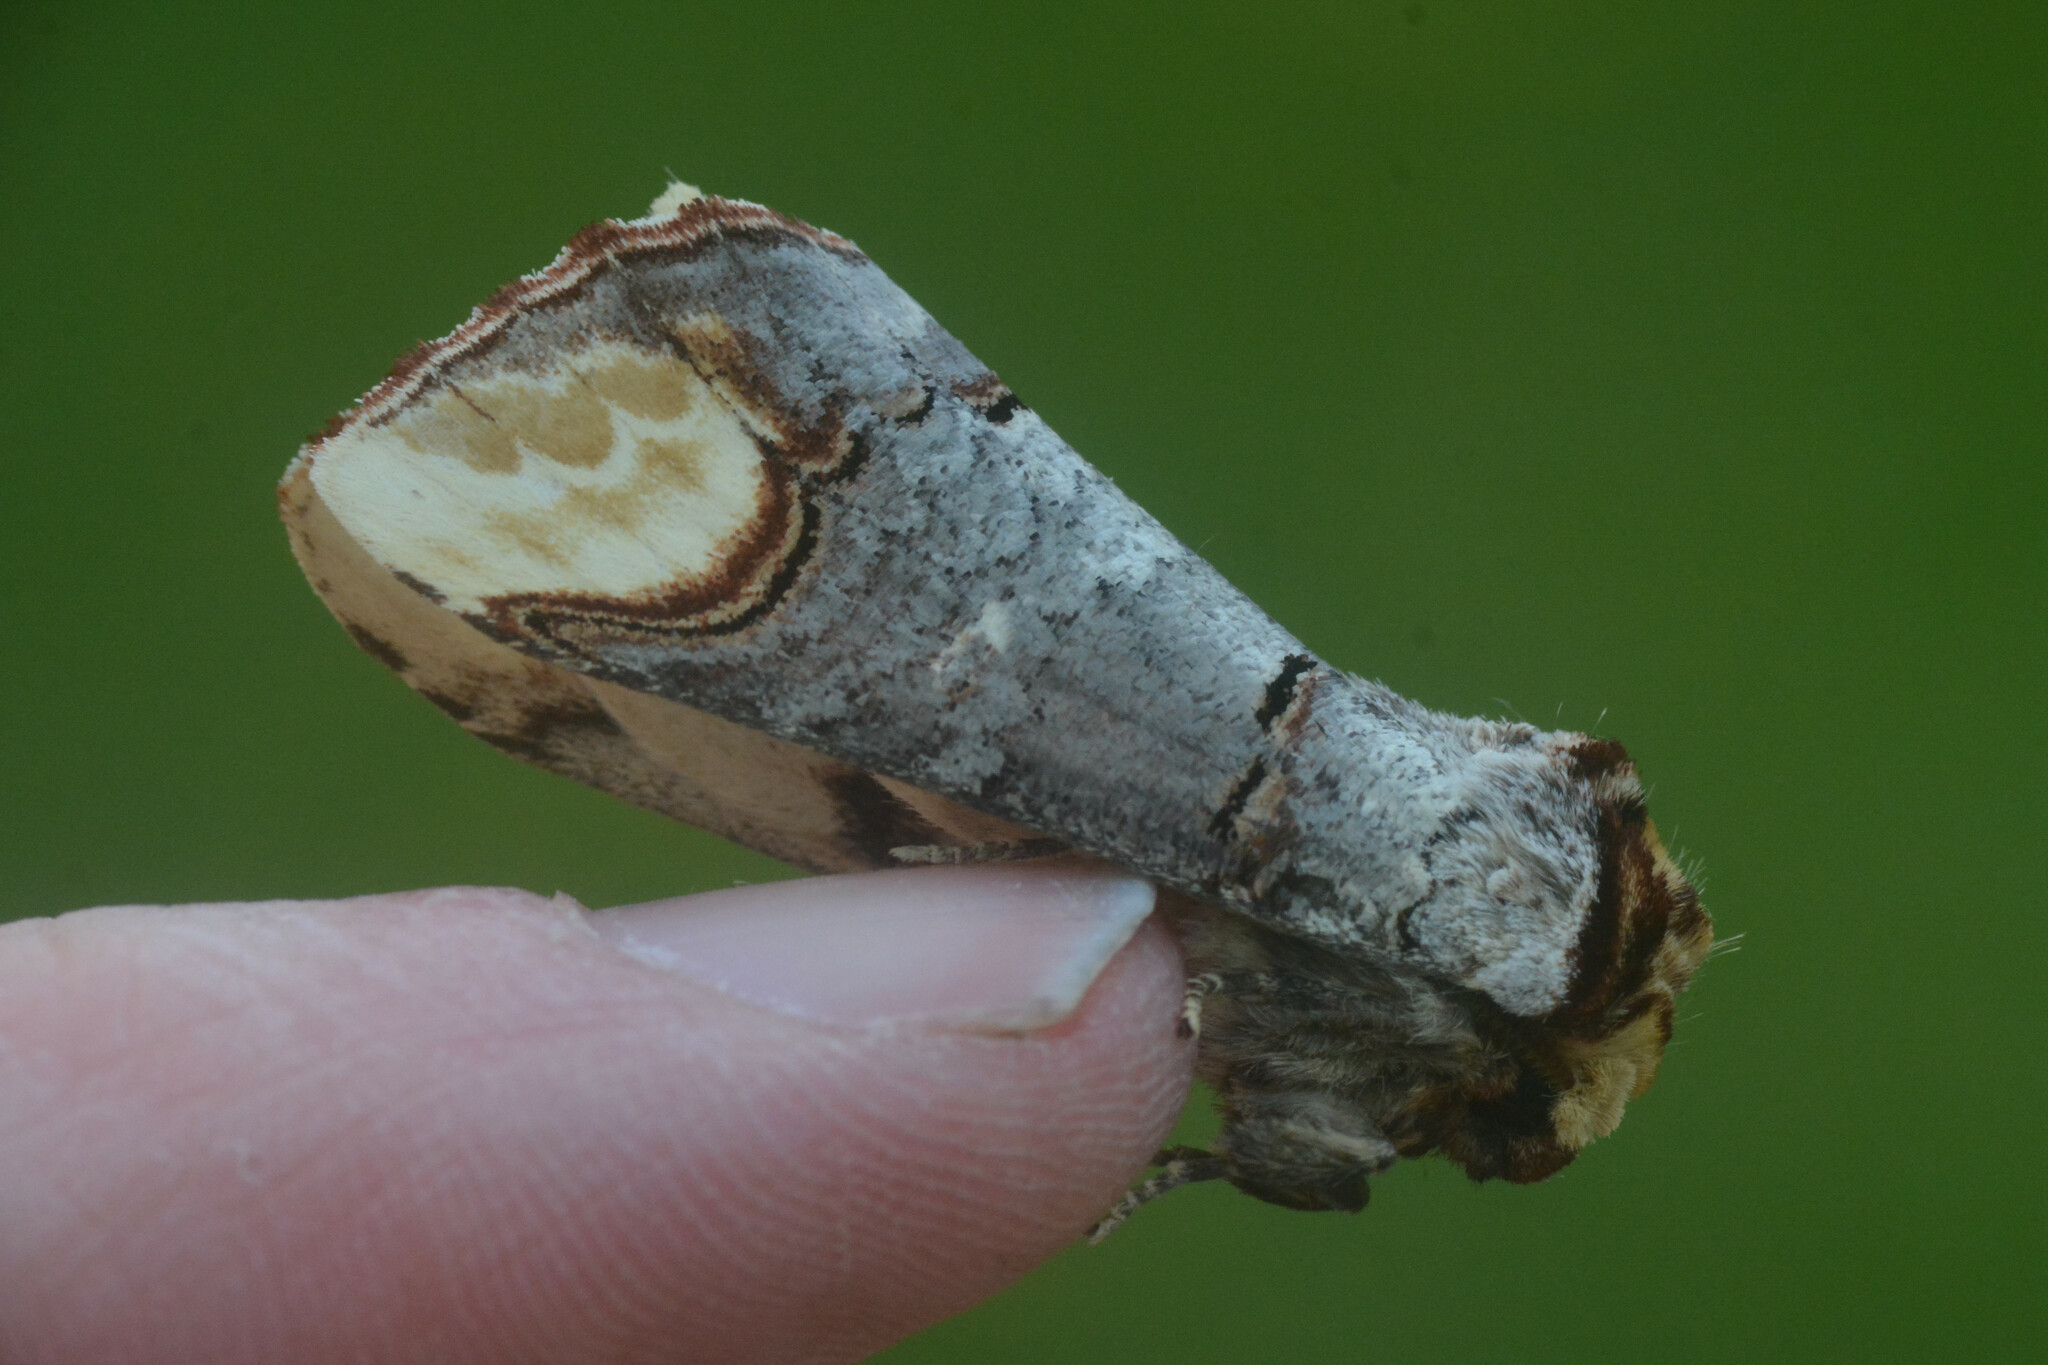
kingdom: Animalia
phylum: Arthropoda
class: Insecta
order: Lepidoptera
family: Notodontidae
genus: Phalera
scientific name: Phalera bucephala
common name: Buff-tip
